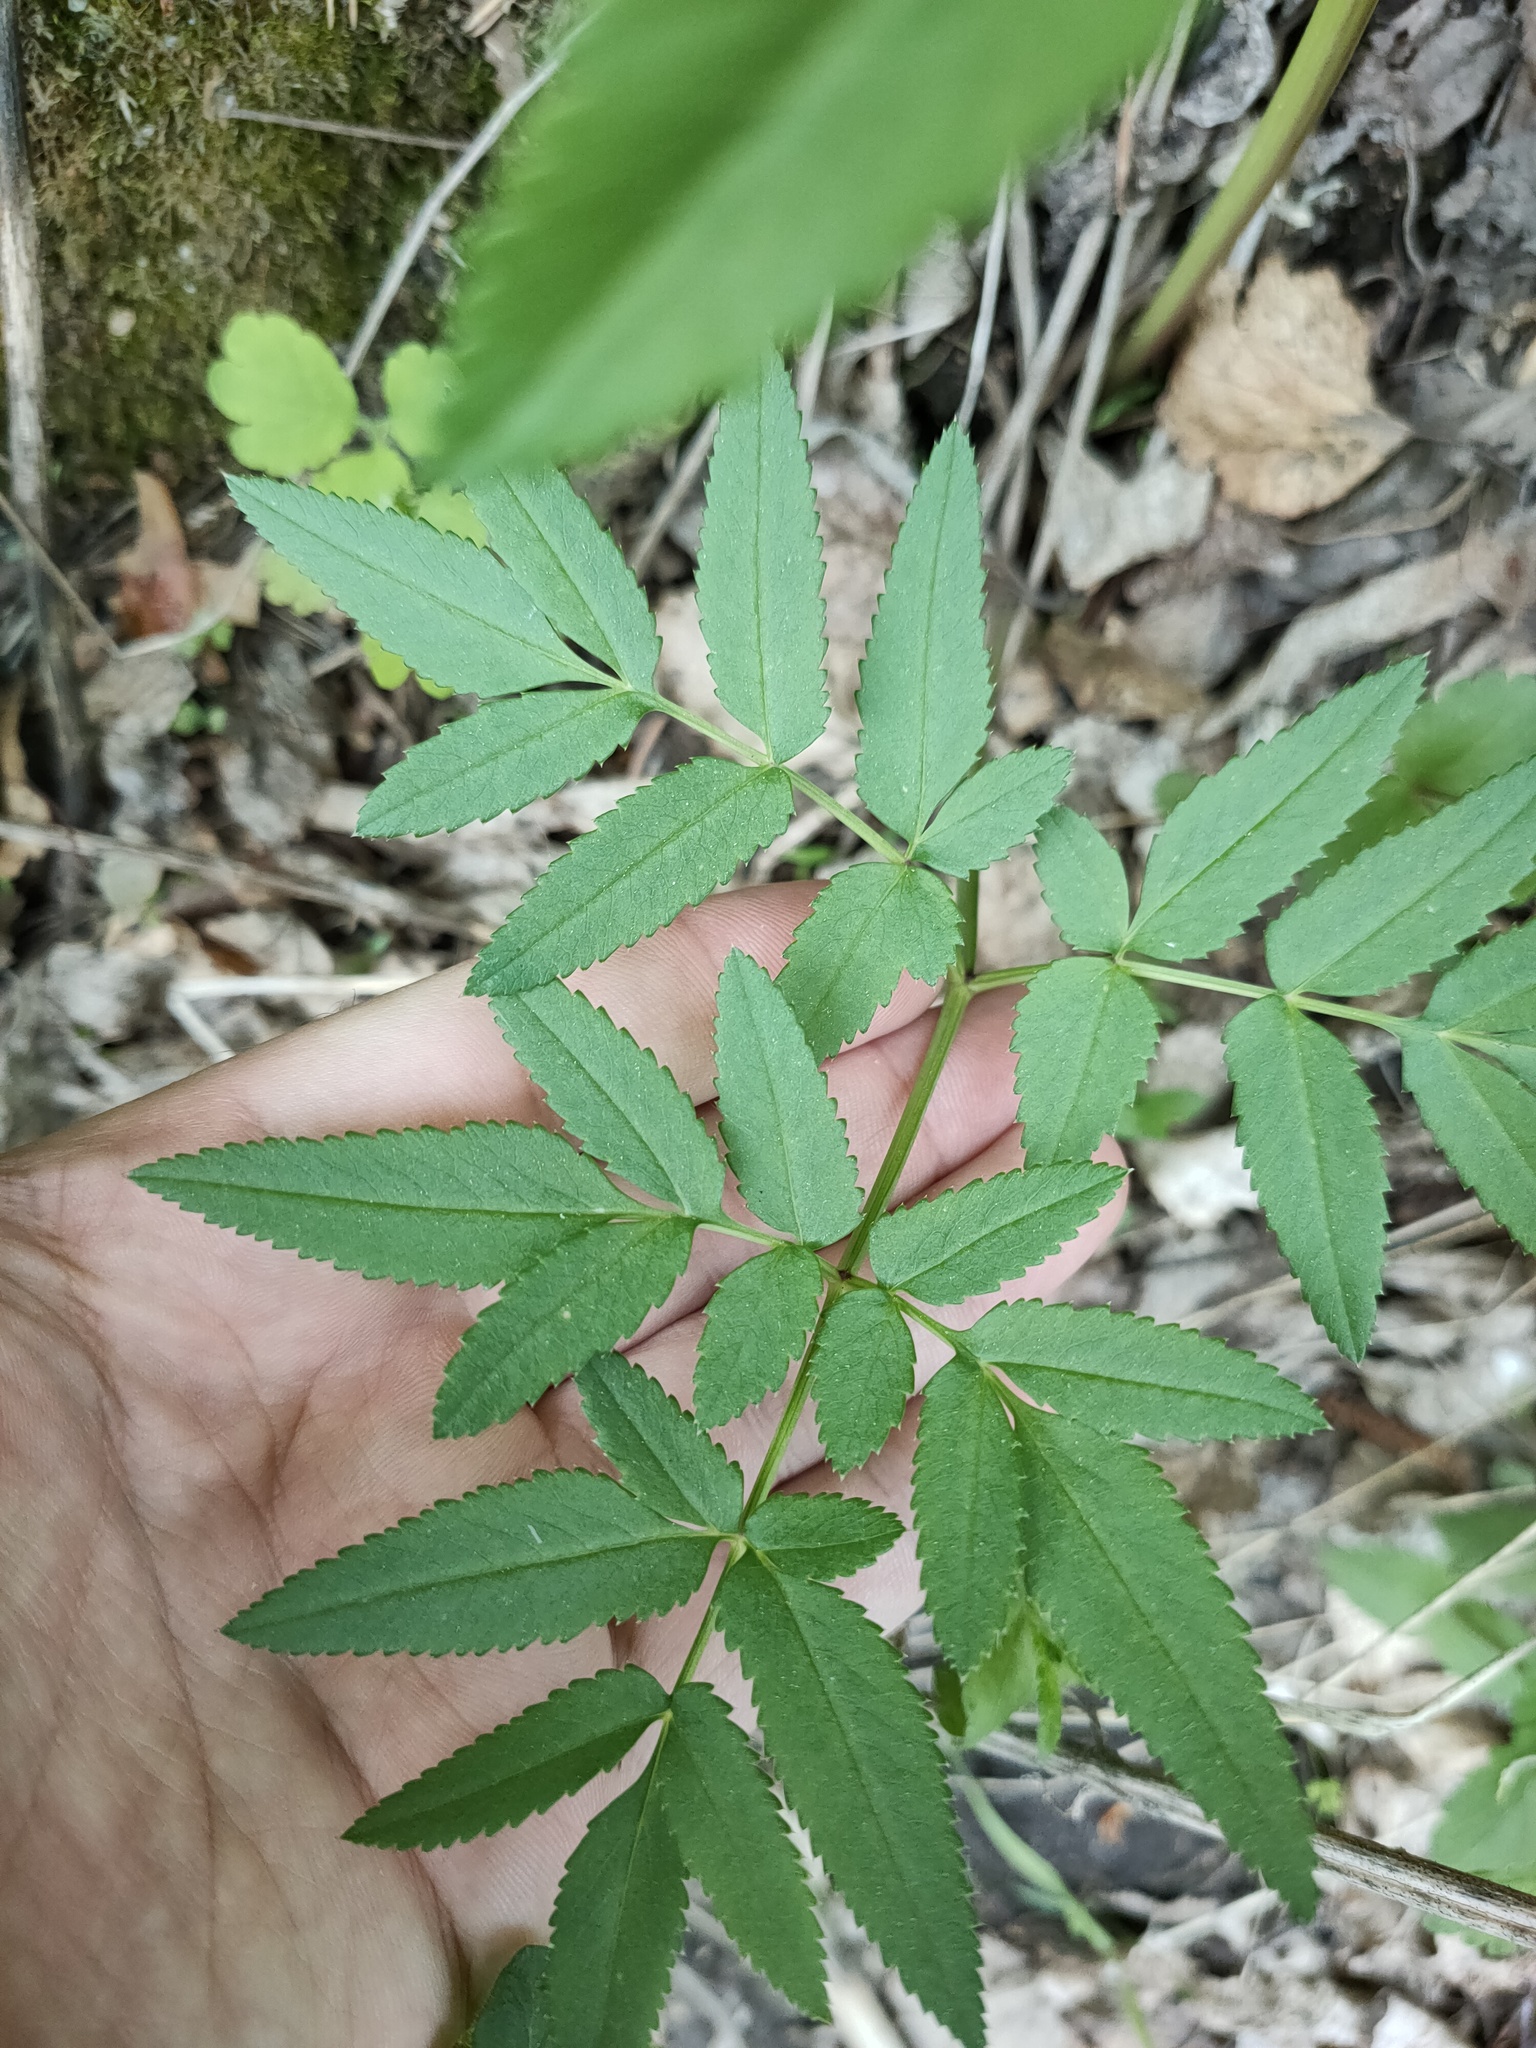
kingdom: Plantae
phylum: Tracheophyta
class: Magnoliopsida
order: Apiales
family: Apiaceae
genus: Angelica
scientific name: Angelica sylvestris
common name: Wild angelica
